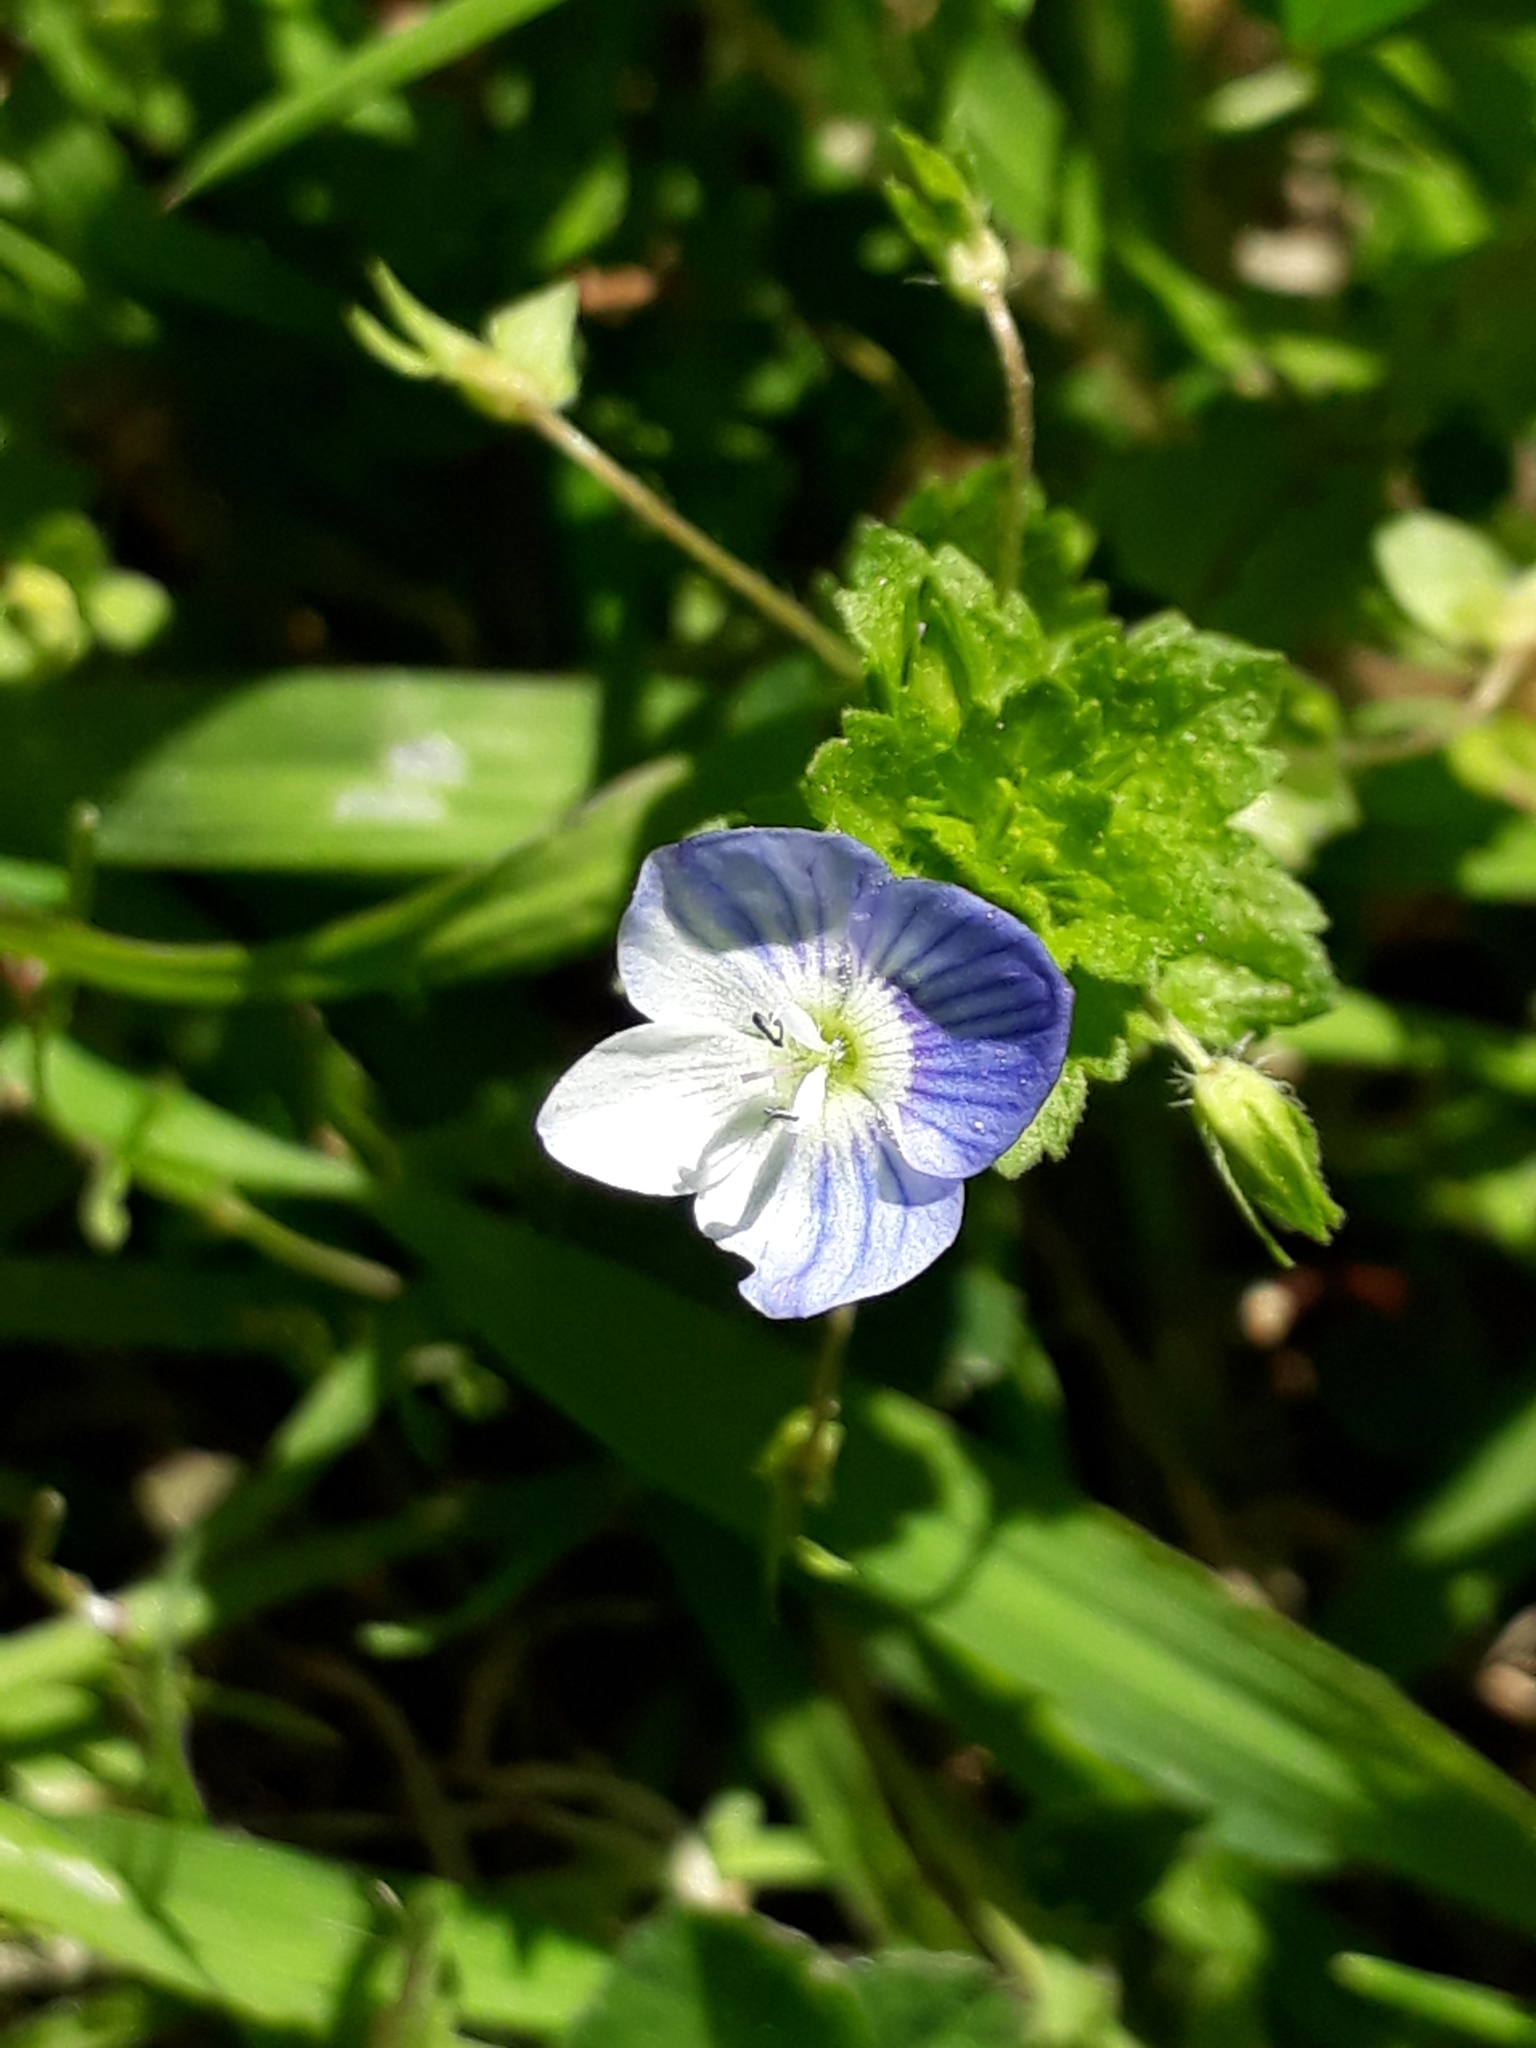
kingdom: Plantae
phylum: Tracheophyta
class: Magnoliopsida
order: Lamiales
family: Plantaginaceae
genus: Veronica
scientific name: Veronica persica
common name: Common field-speedwell
